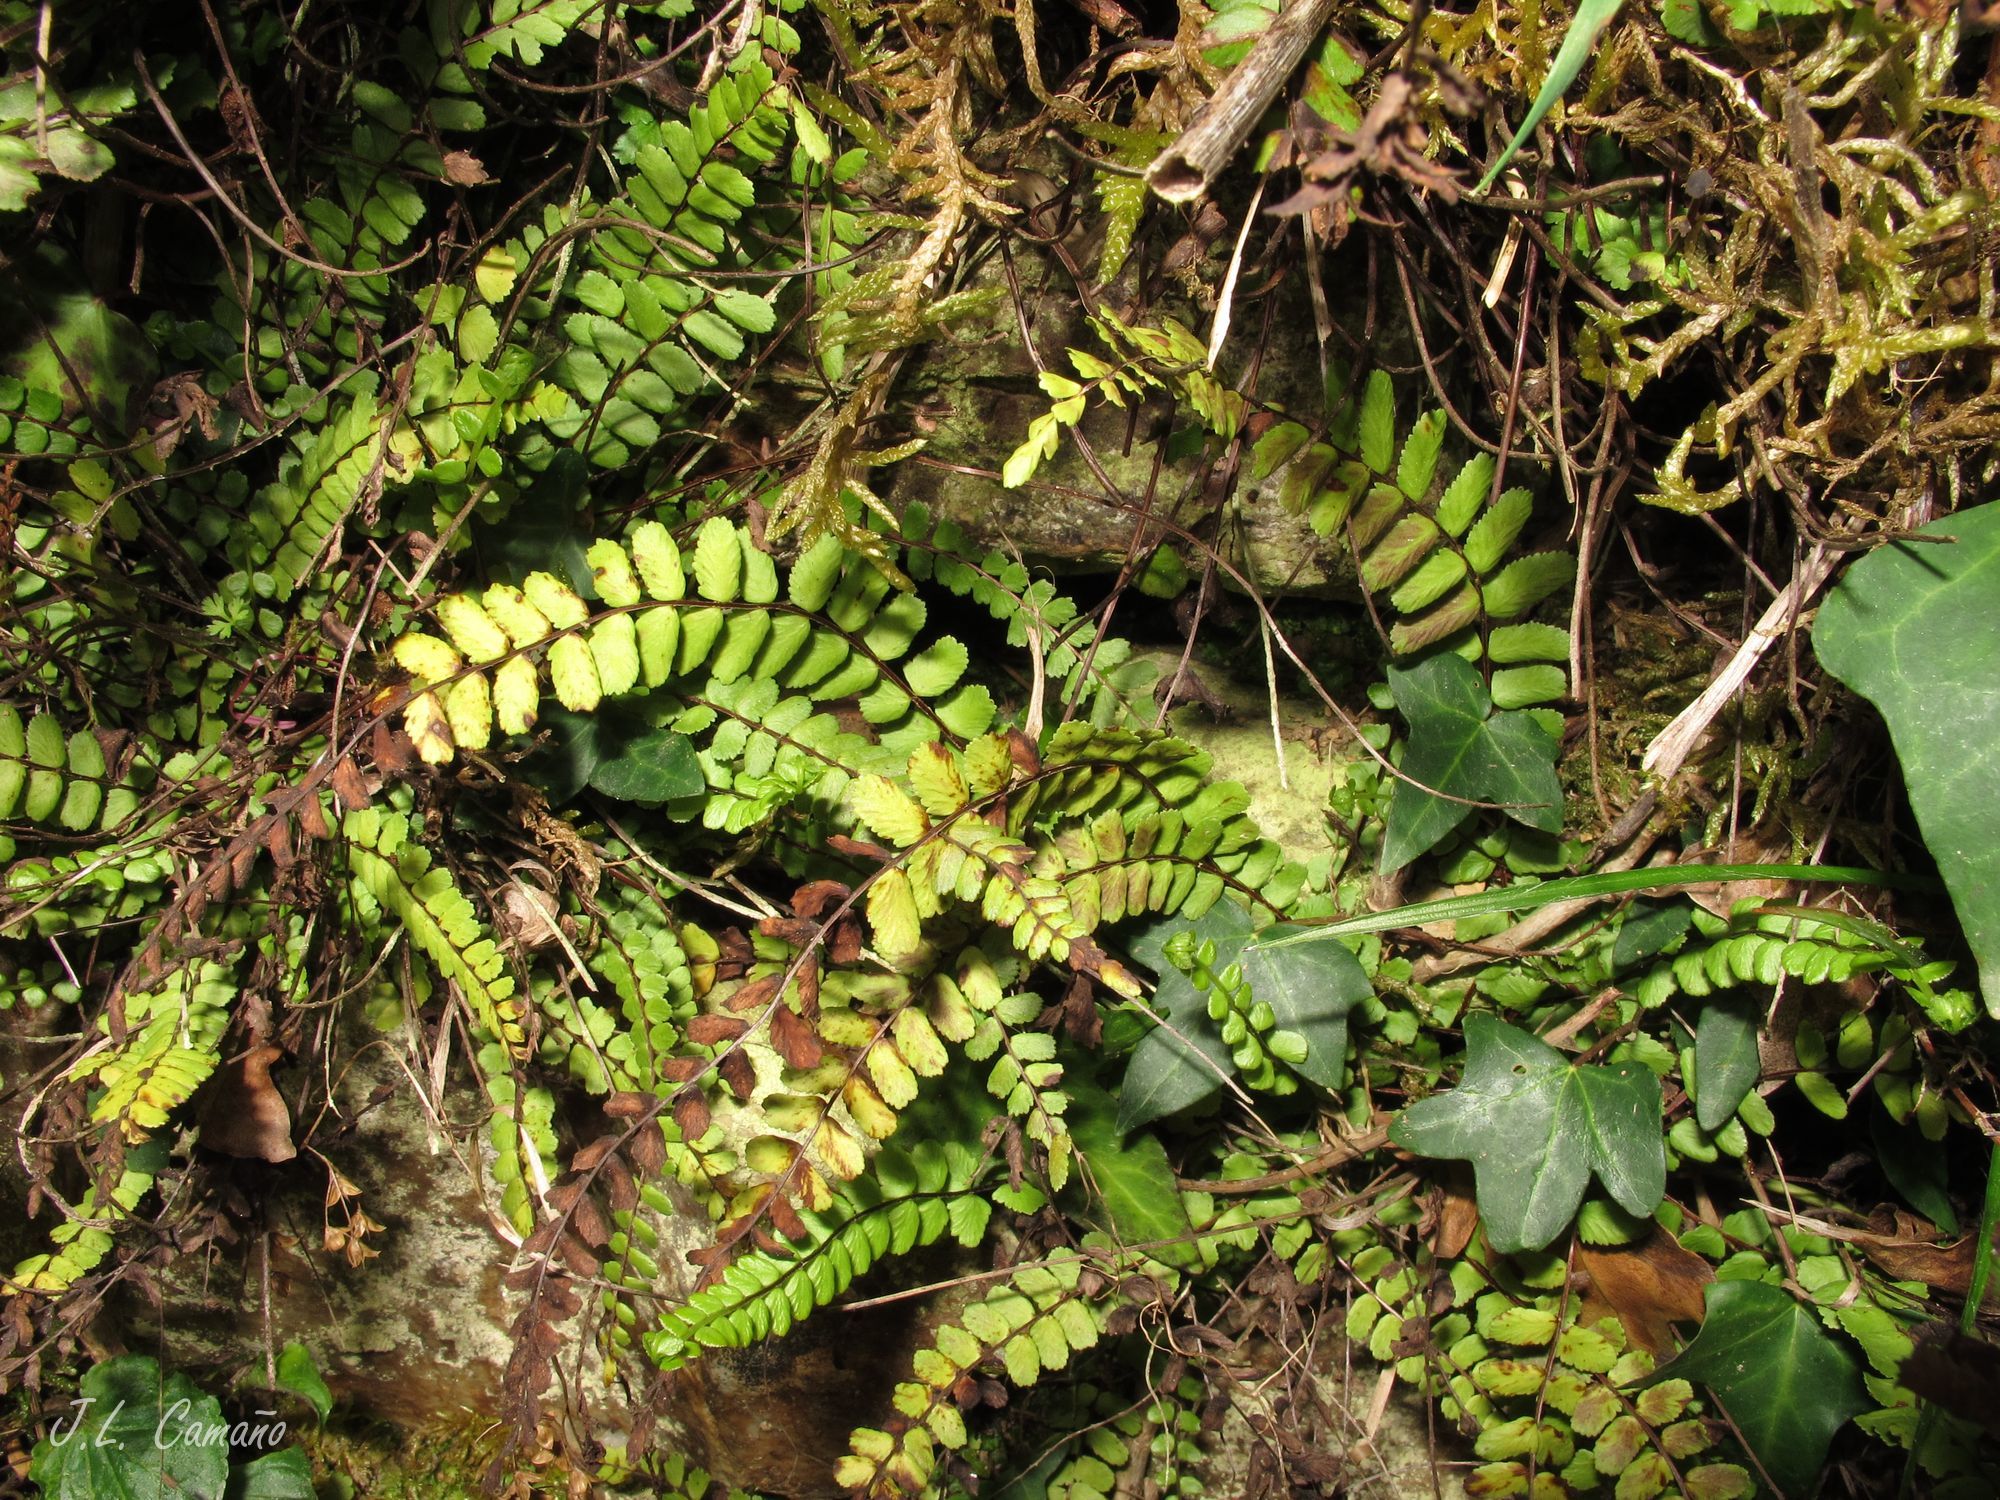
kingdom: Plantae
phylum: Tracheophyta
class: Polypodiopsida
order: Polypodiales
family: Aspleniaceae
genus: Asplenium
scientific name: Asplenium trichomanes
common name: Maidenhair spleenwort
